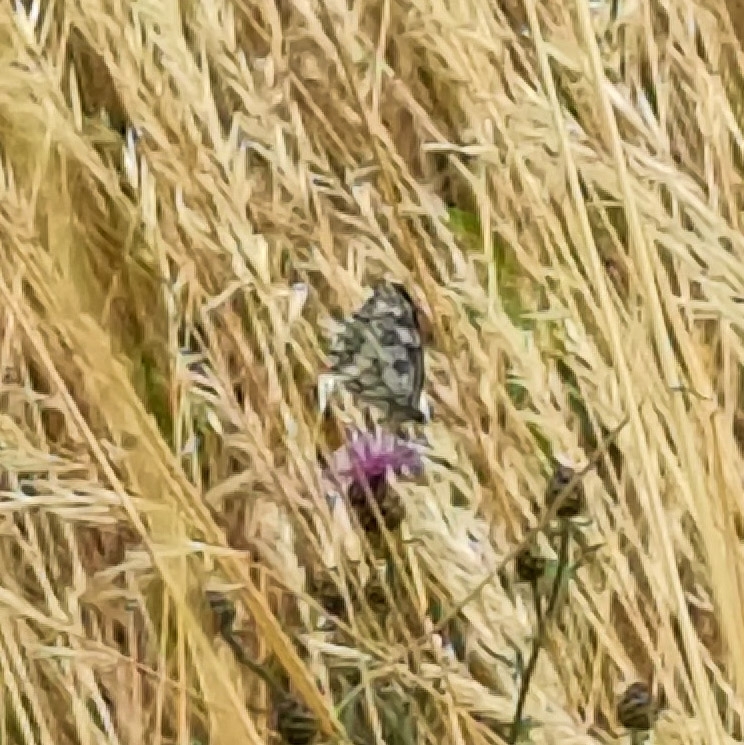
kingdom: Animalia
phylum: Arthropoda
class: Insecta
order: Lepidoptera
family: Nymphalidae
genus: Melanargia
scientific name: Melanargia galathea
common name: Marbled white
